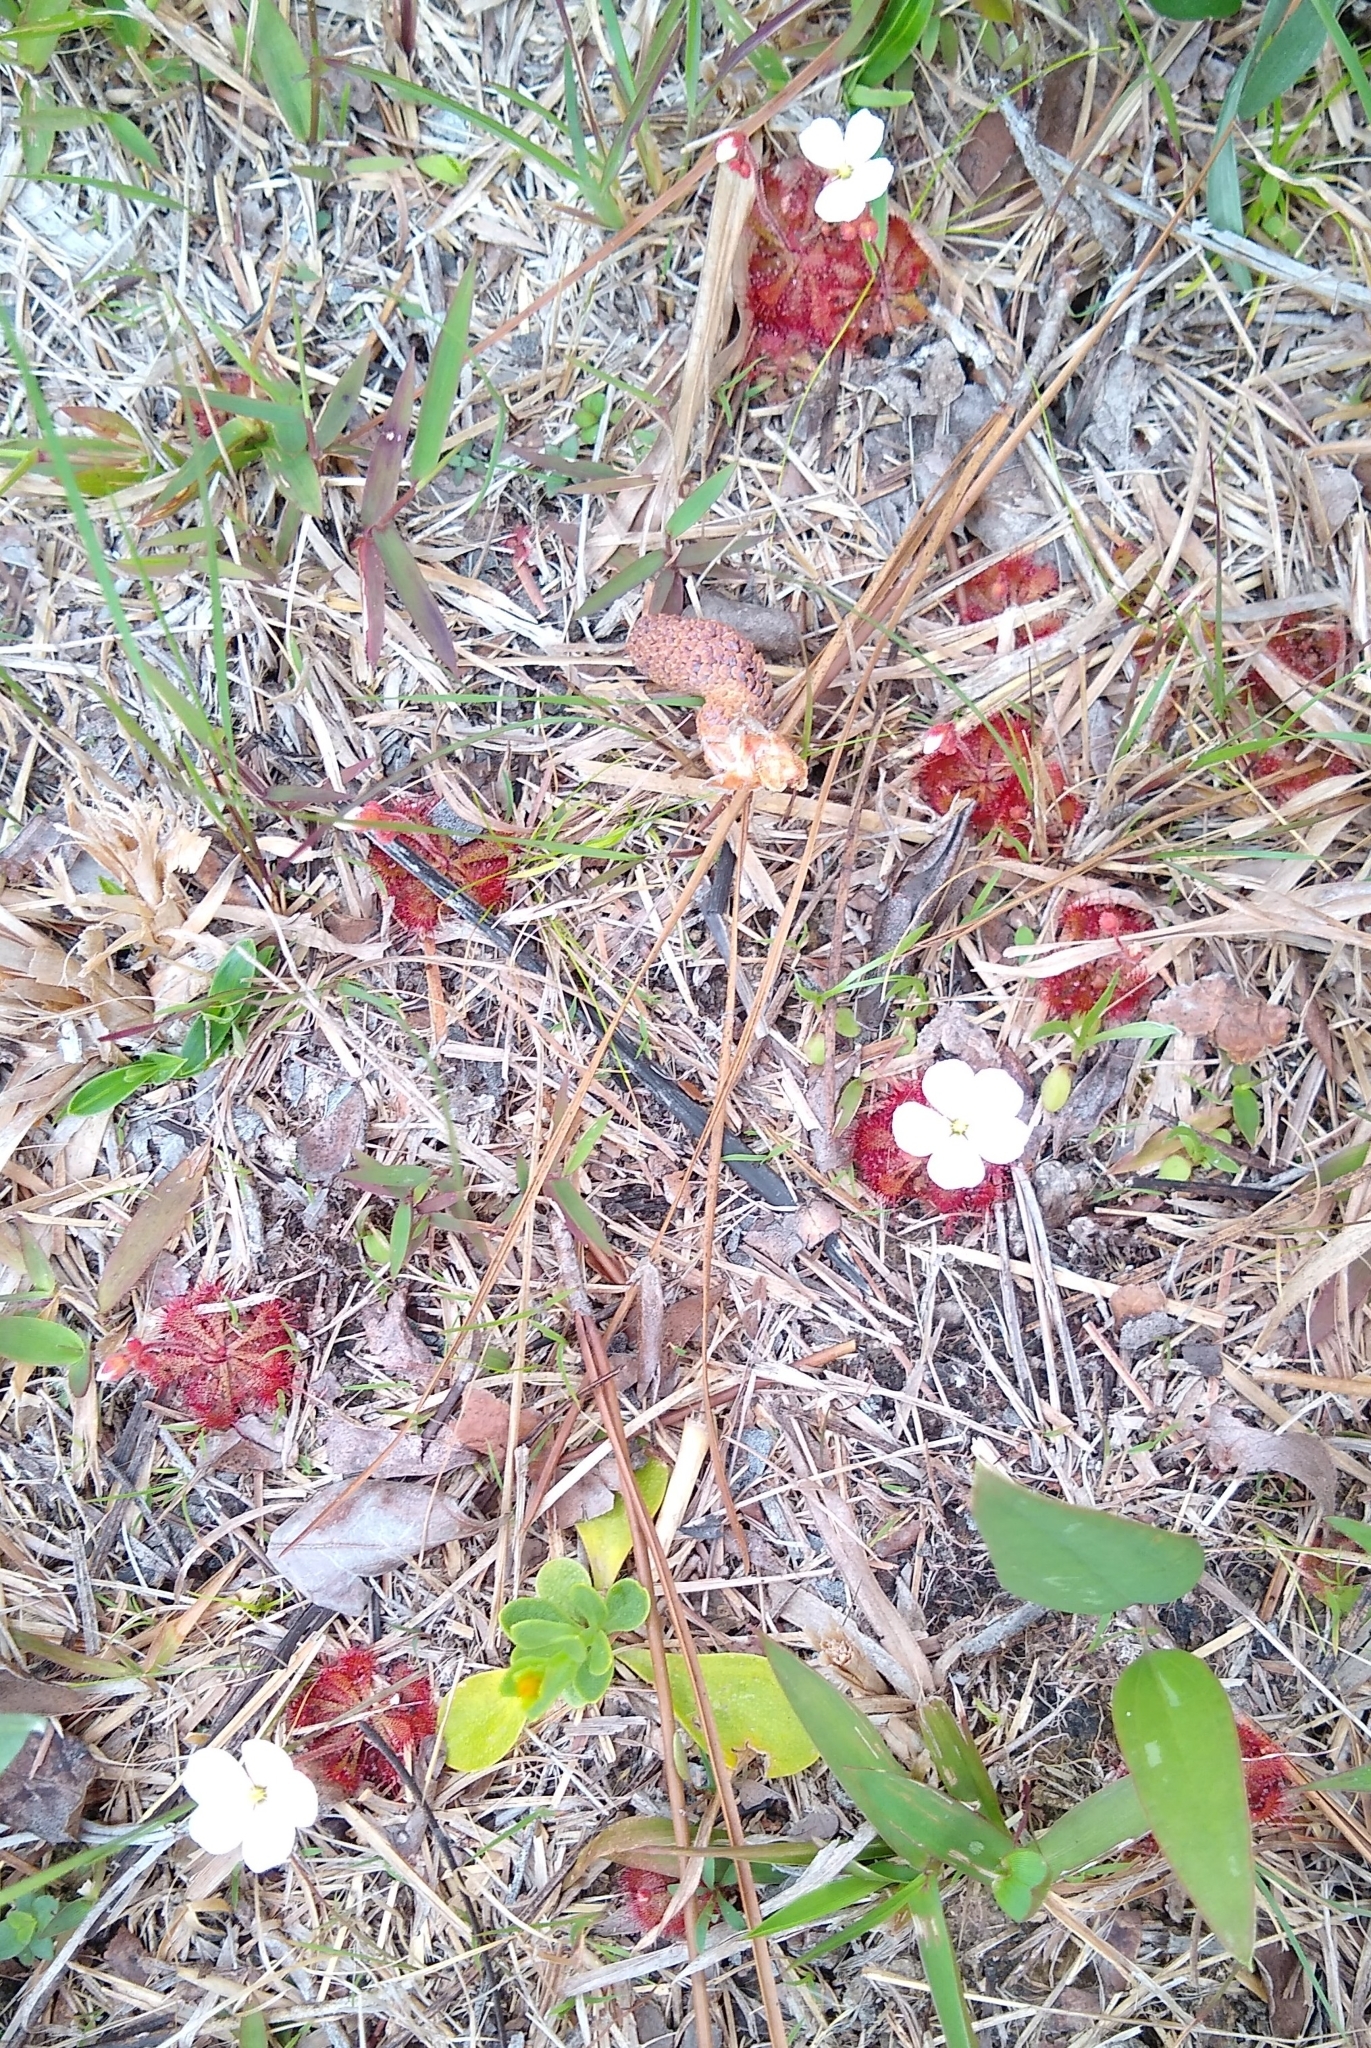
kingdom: Plantae
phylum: Tracheophyta
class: Magnoliopsida
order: Caryophyllales
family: Droseraceae
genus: Drosera
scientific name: Drosera brevifolia
